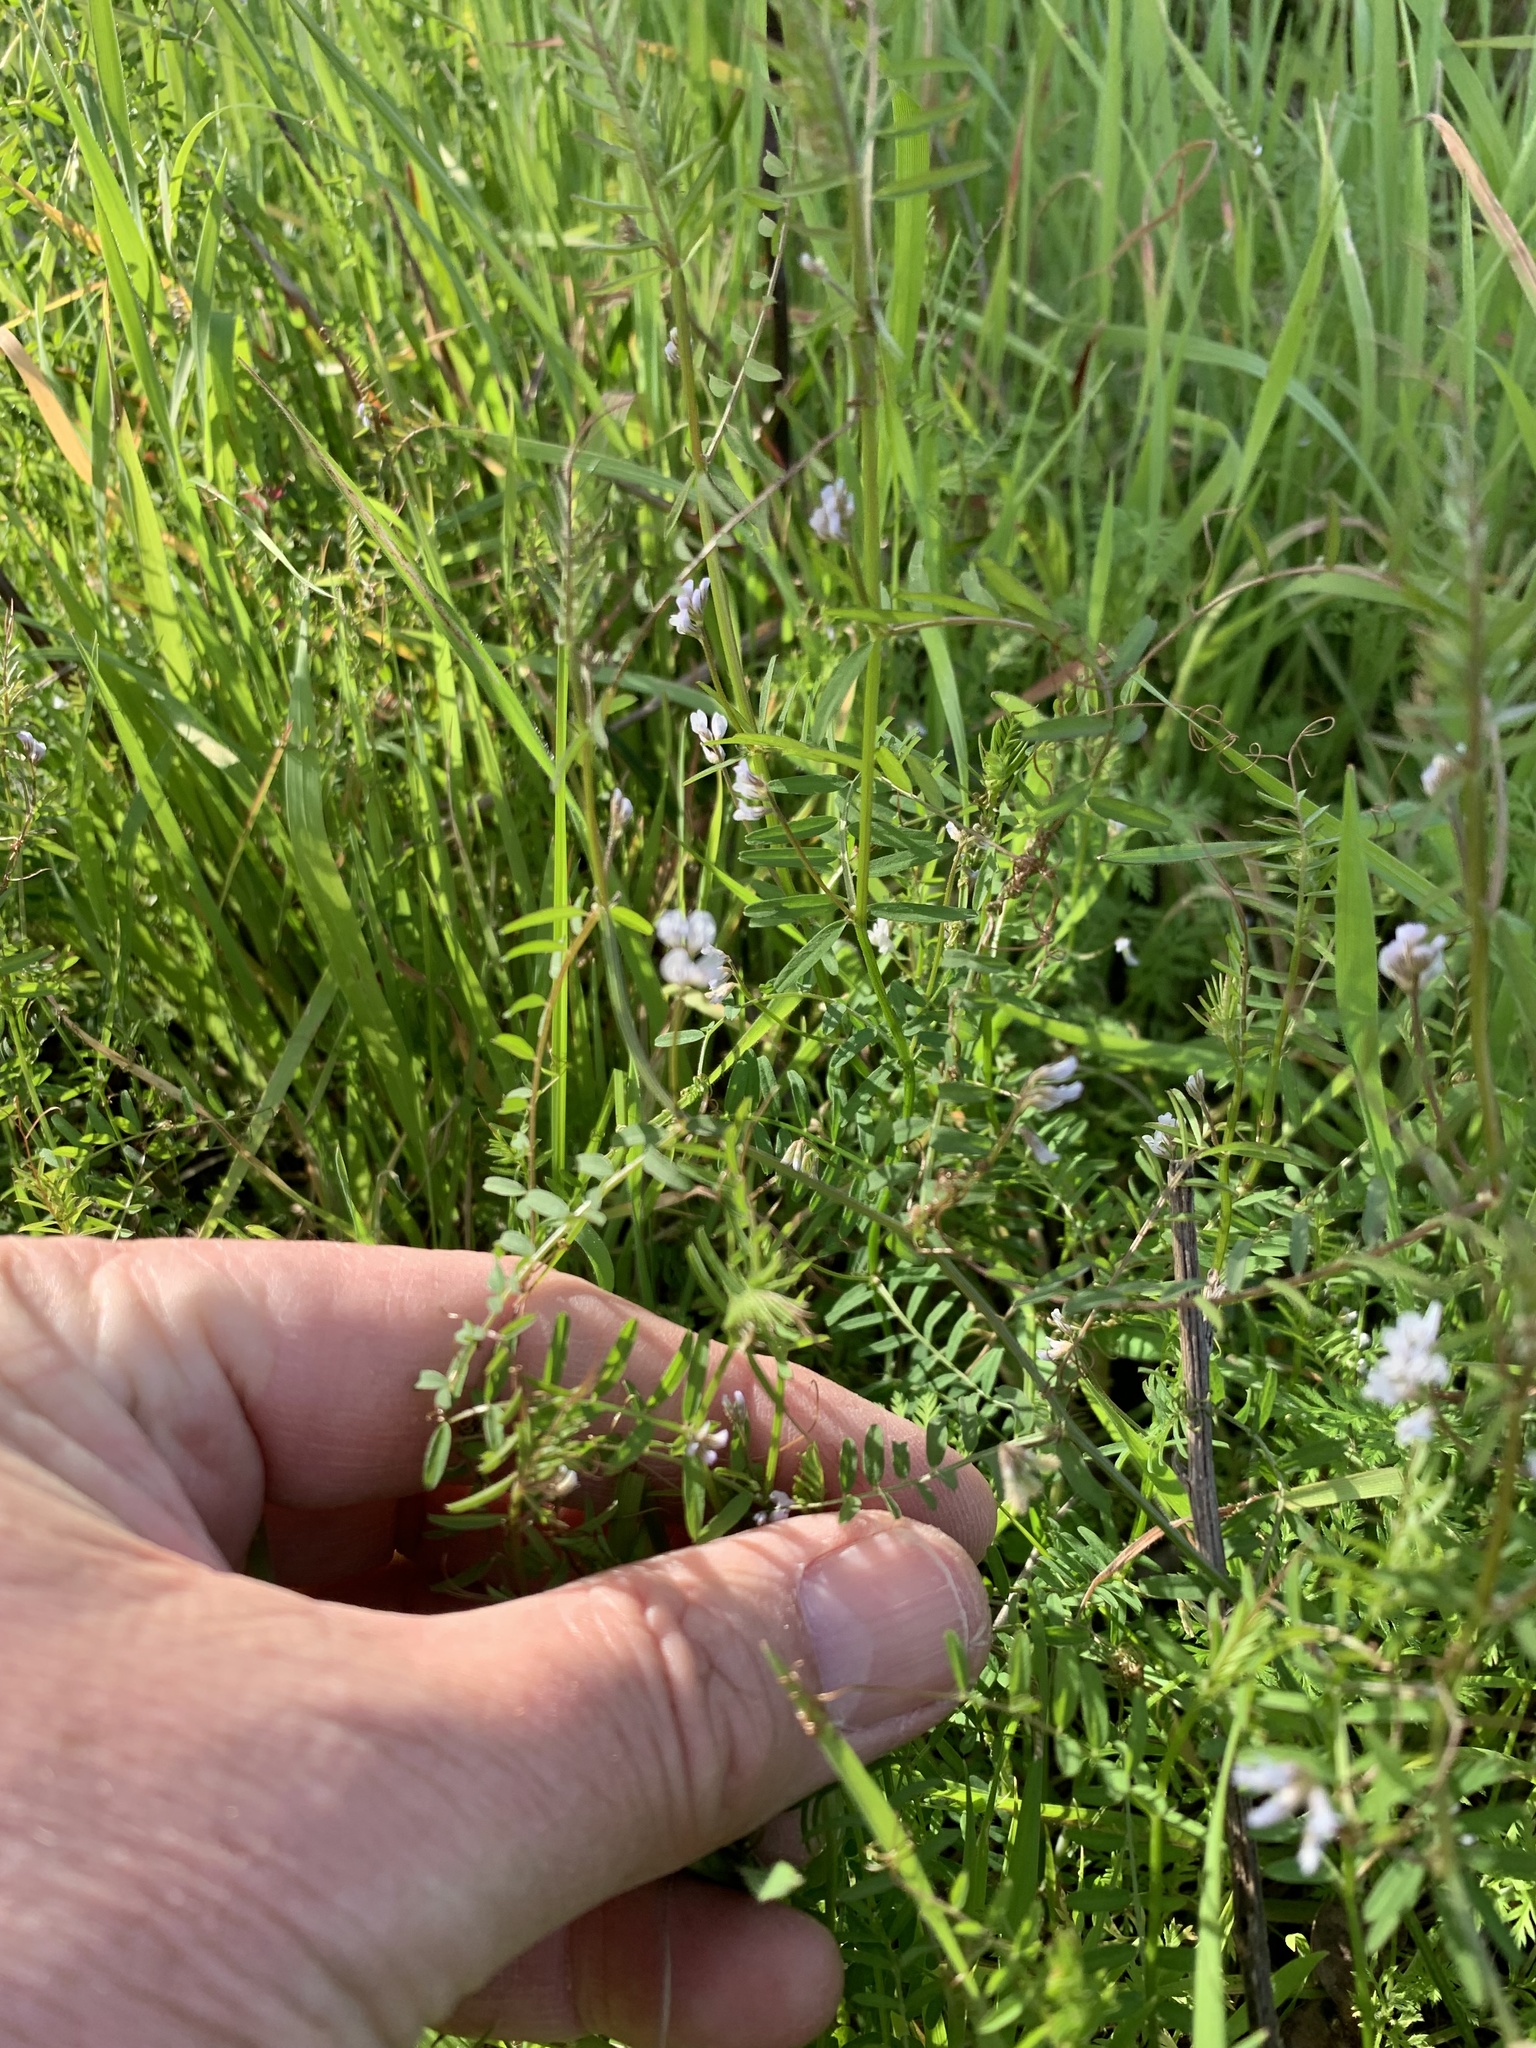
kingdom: Plantae
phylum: Tracheophyta
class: Magnoliopsida
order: Fabales
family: Fabaceae
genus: Vicia
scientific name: Vicia hirsuta
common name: Tiny vetch
